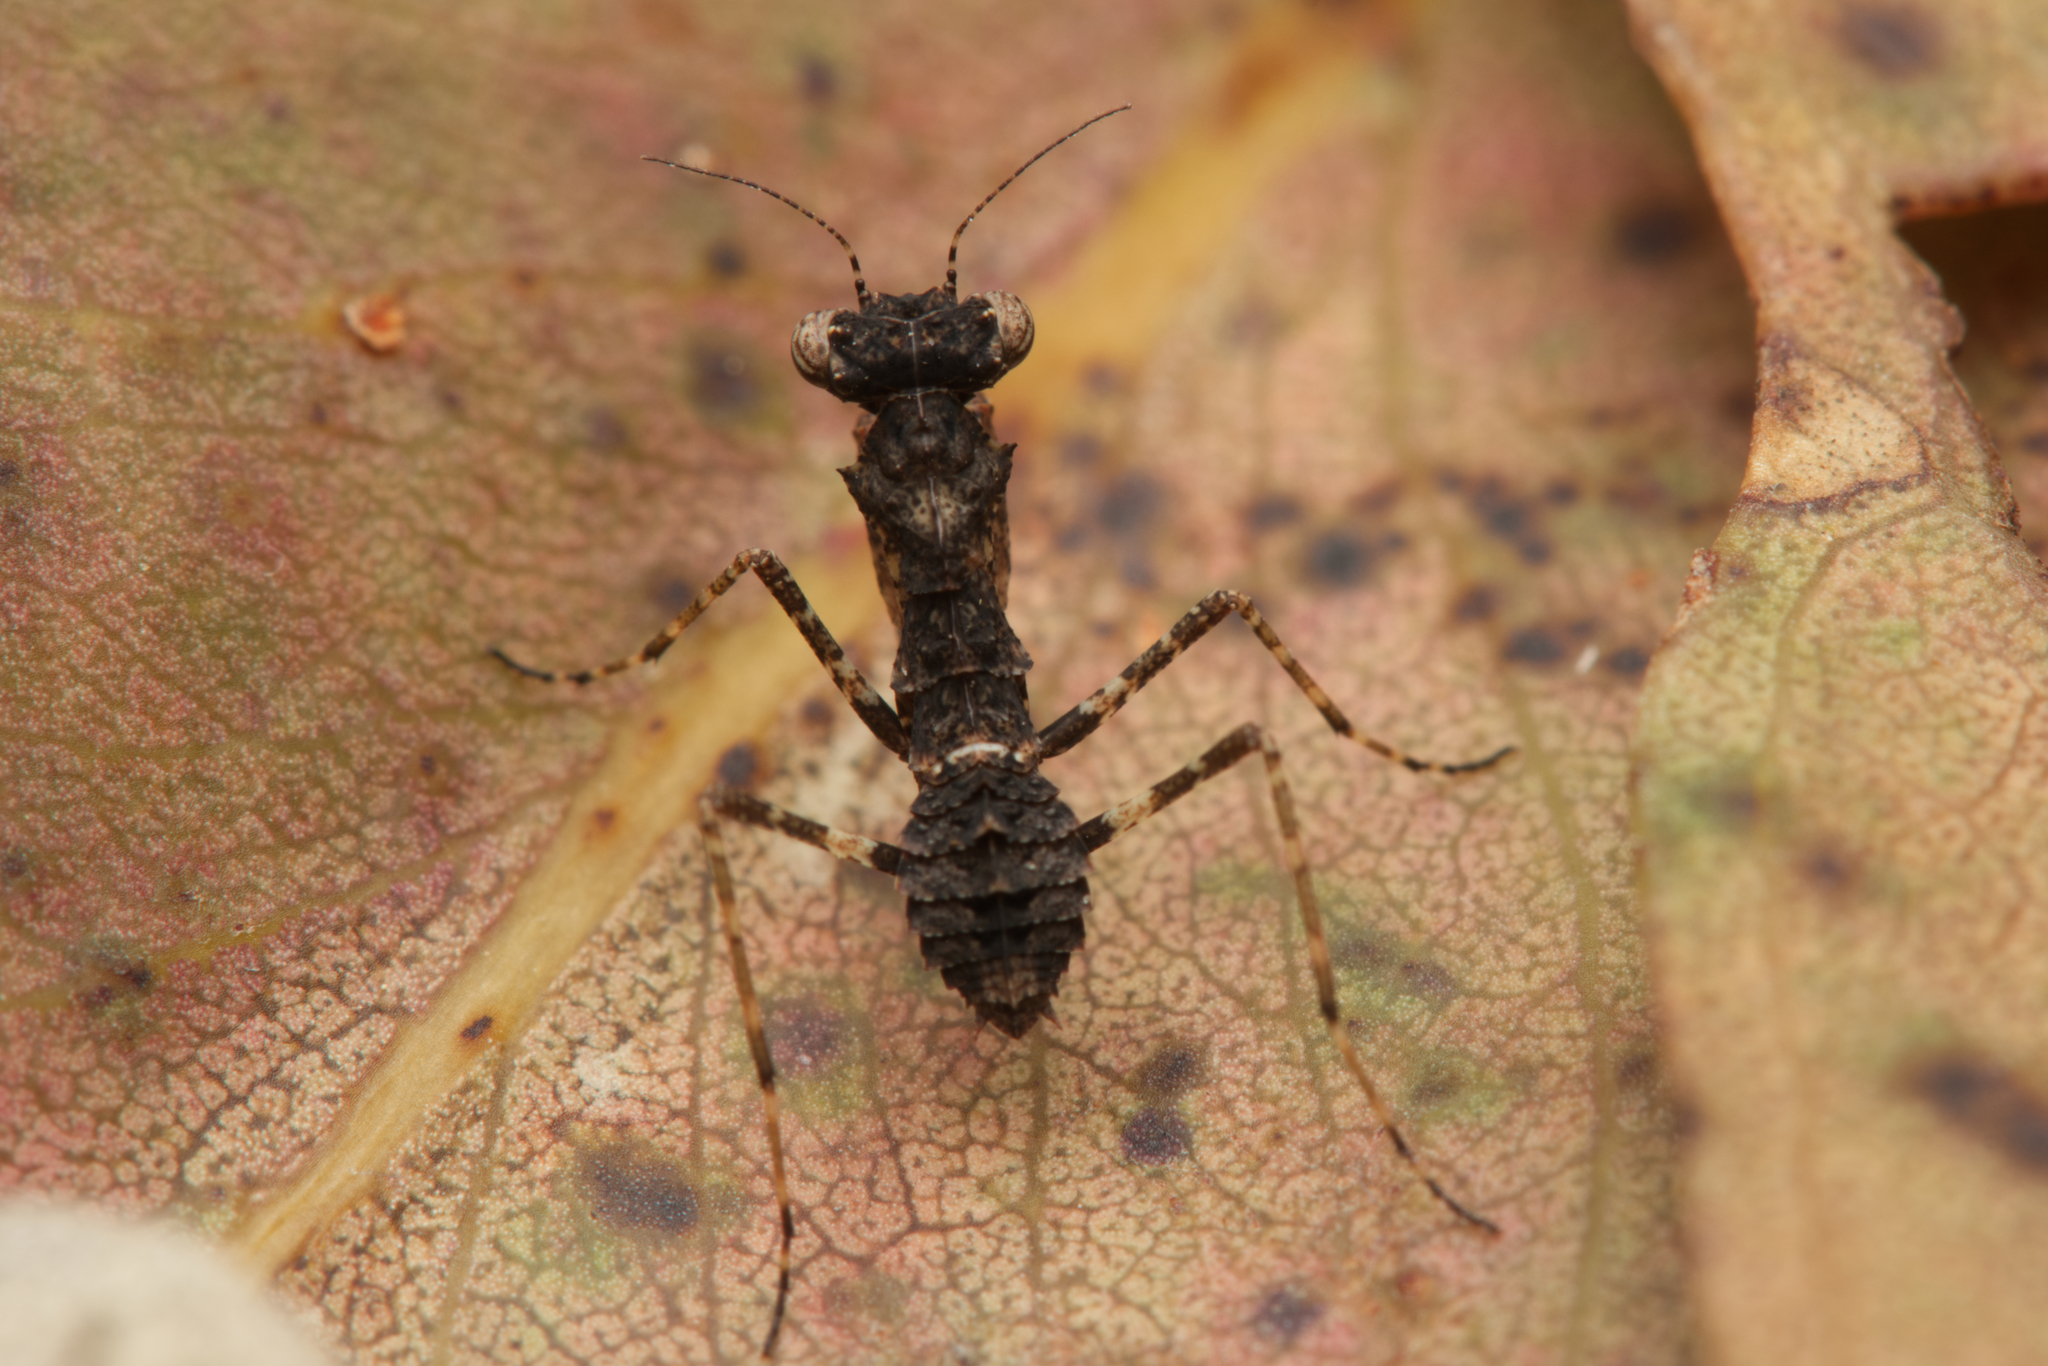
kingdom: Animalia
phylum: Arthropoda
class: Insecta
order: Mantodea
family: Nanomantidae
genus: Paraoxypilus
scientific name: Paraoxypilus tasmaniensis
